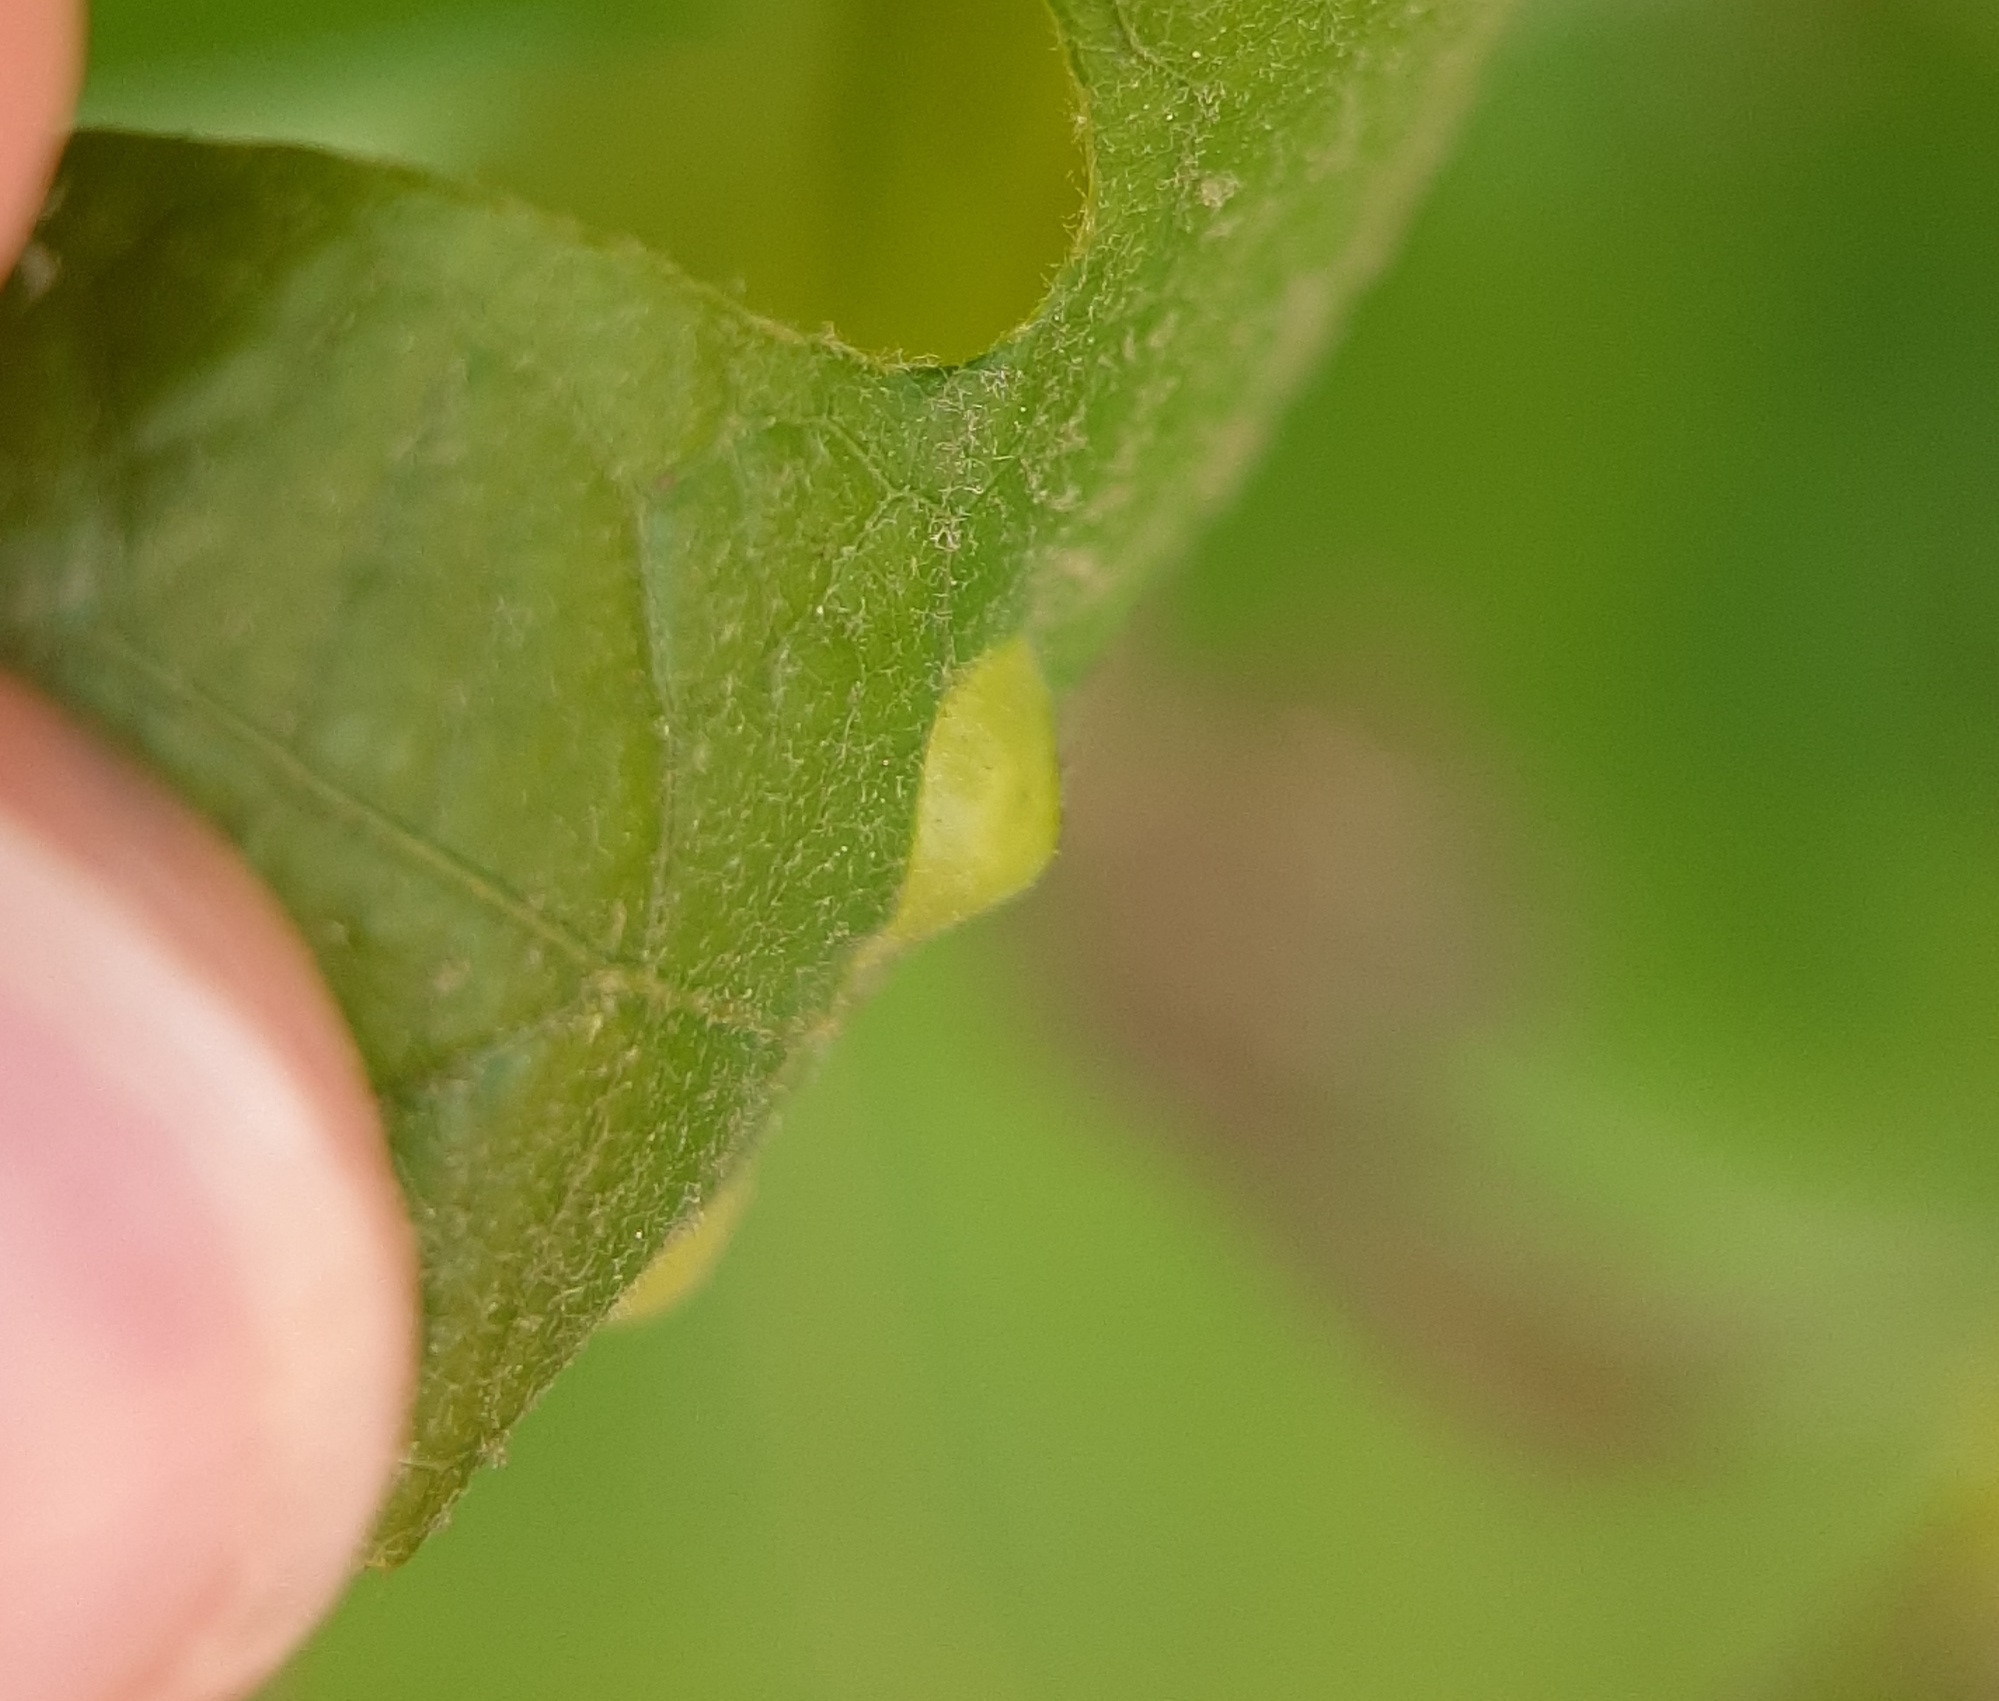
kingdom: Animalia
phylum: Arthropoda
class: Insecta
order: Hymenoptera
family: Cynipidae
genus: Callirhytis
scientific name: Callirhytis
